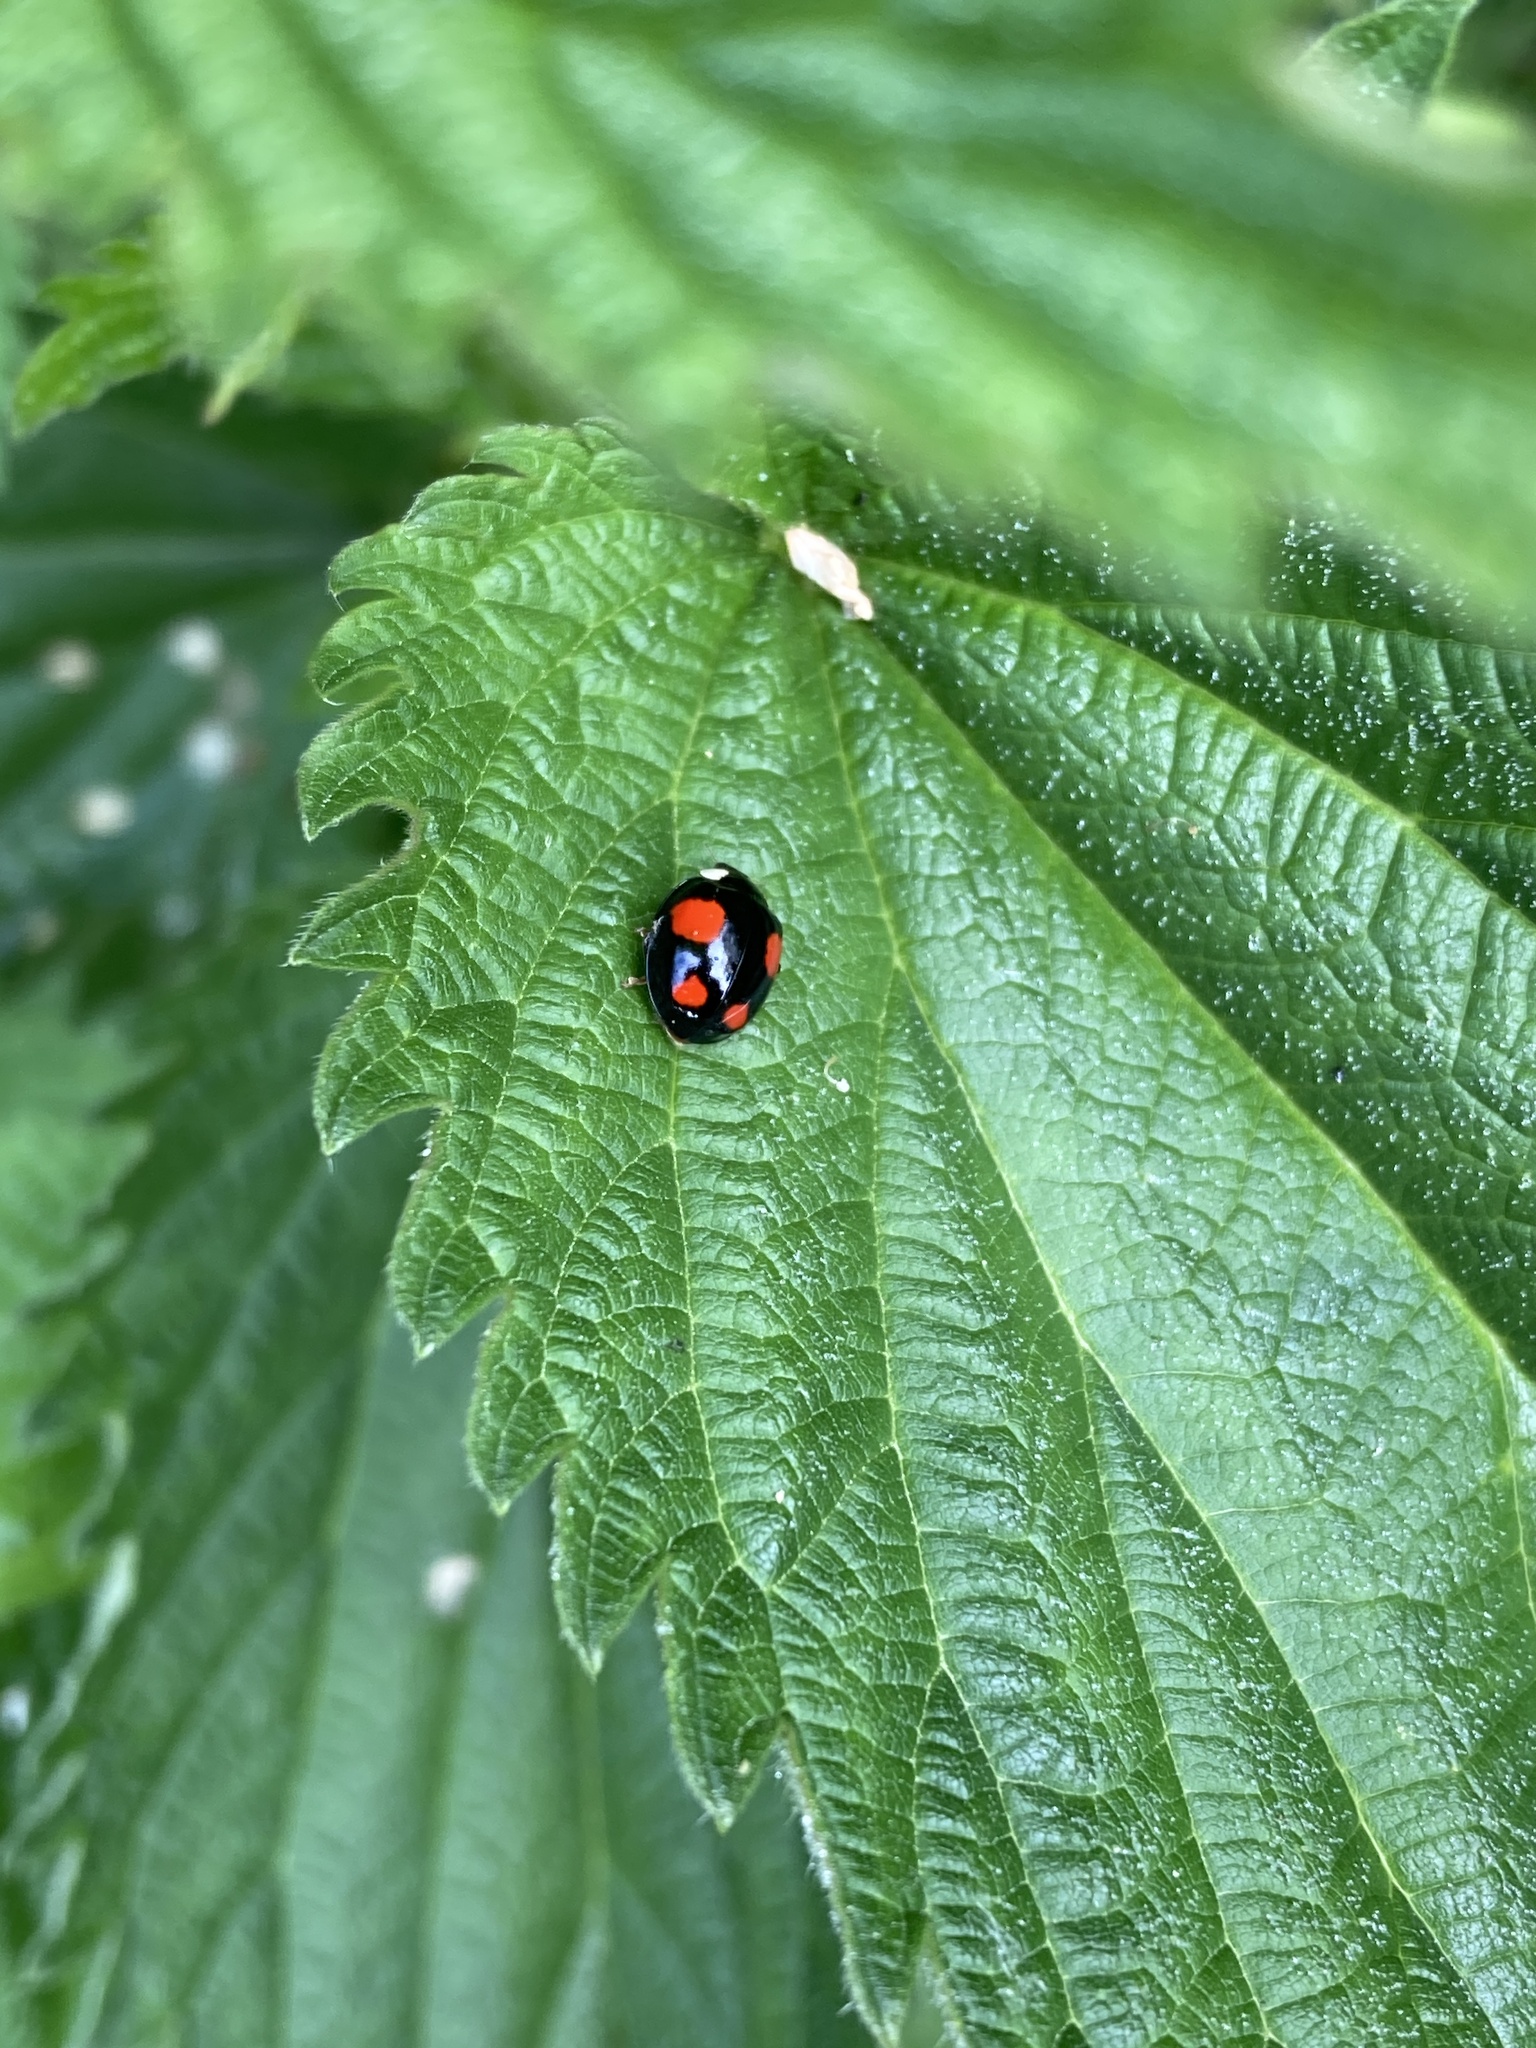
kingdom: Animalia
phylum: Arthropoda
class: Insecta
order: Coleoptera
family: Coccinellidae
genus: Harmonia
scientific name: Harmonia axyridis
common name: Harlequin ladybird
